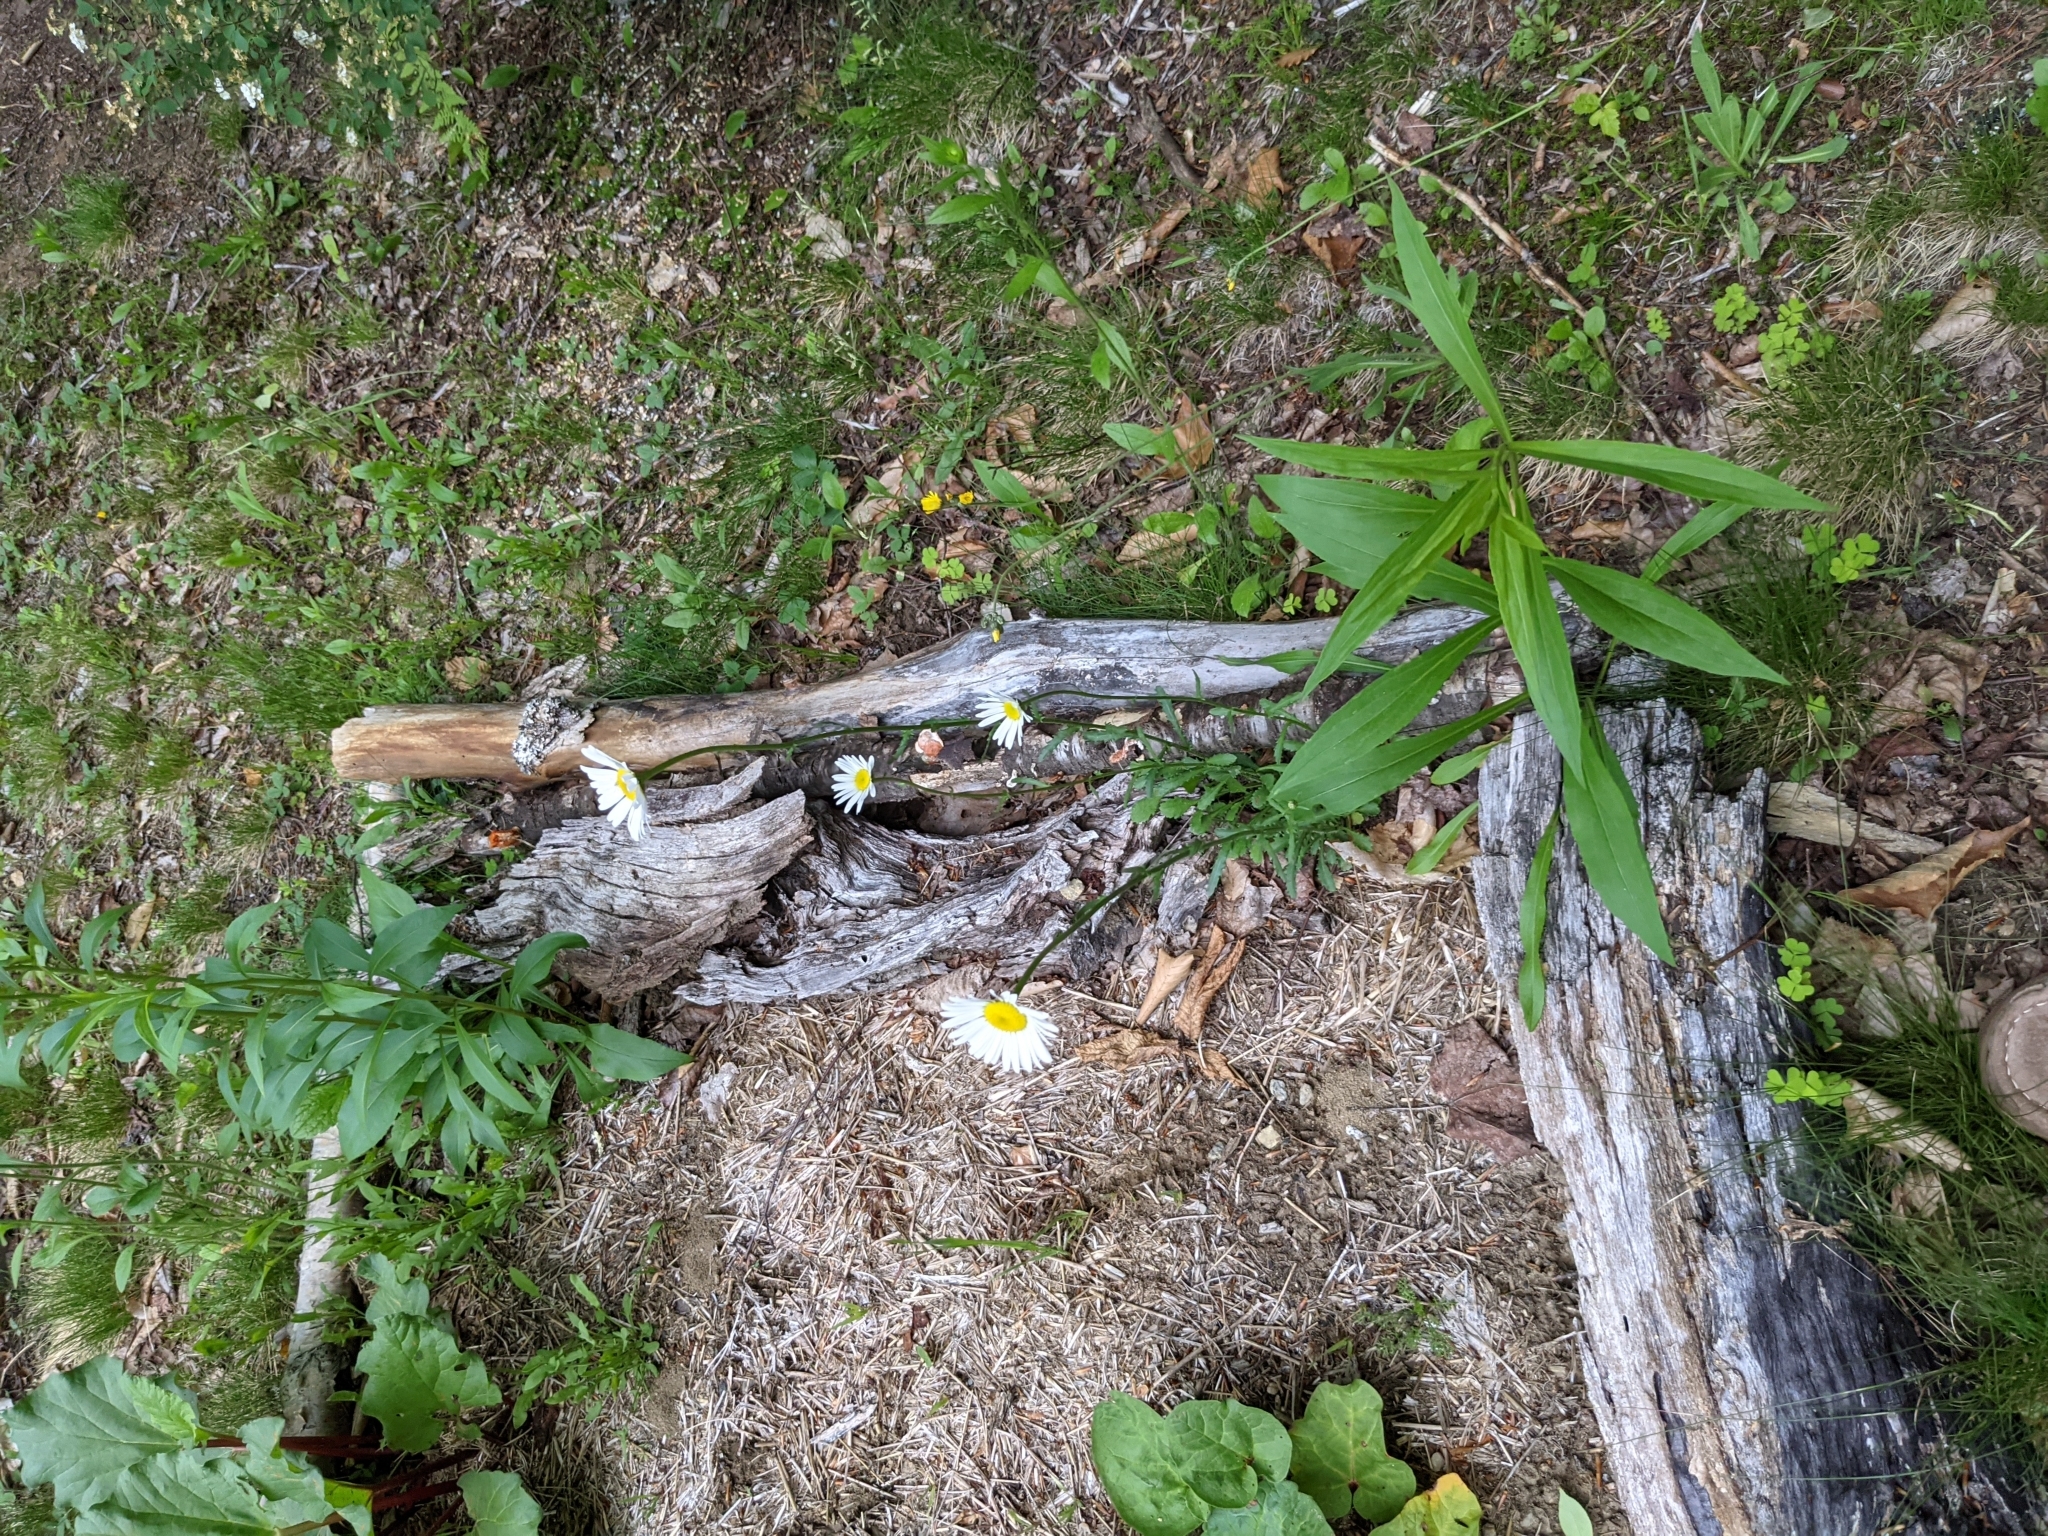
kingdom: Plantae
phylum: Tracheophyta
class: Magnoliopsida
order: Asterales
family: Asteraceae
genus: Leucanthemum
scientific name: Leucanthemum vulgare
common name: Oxeye daisy
